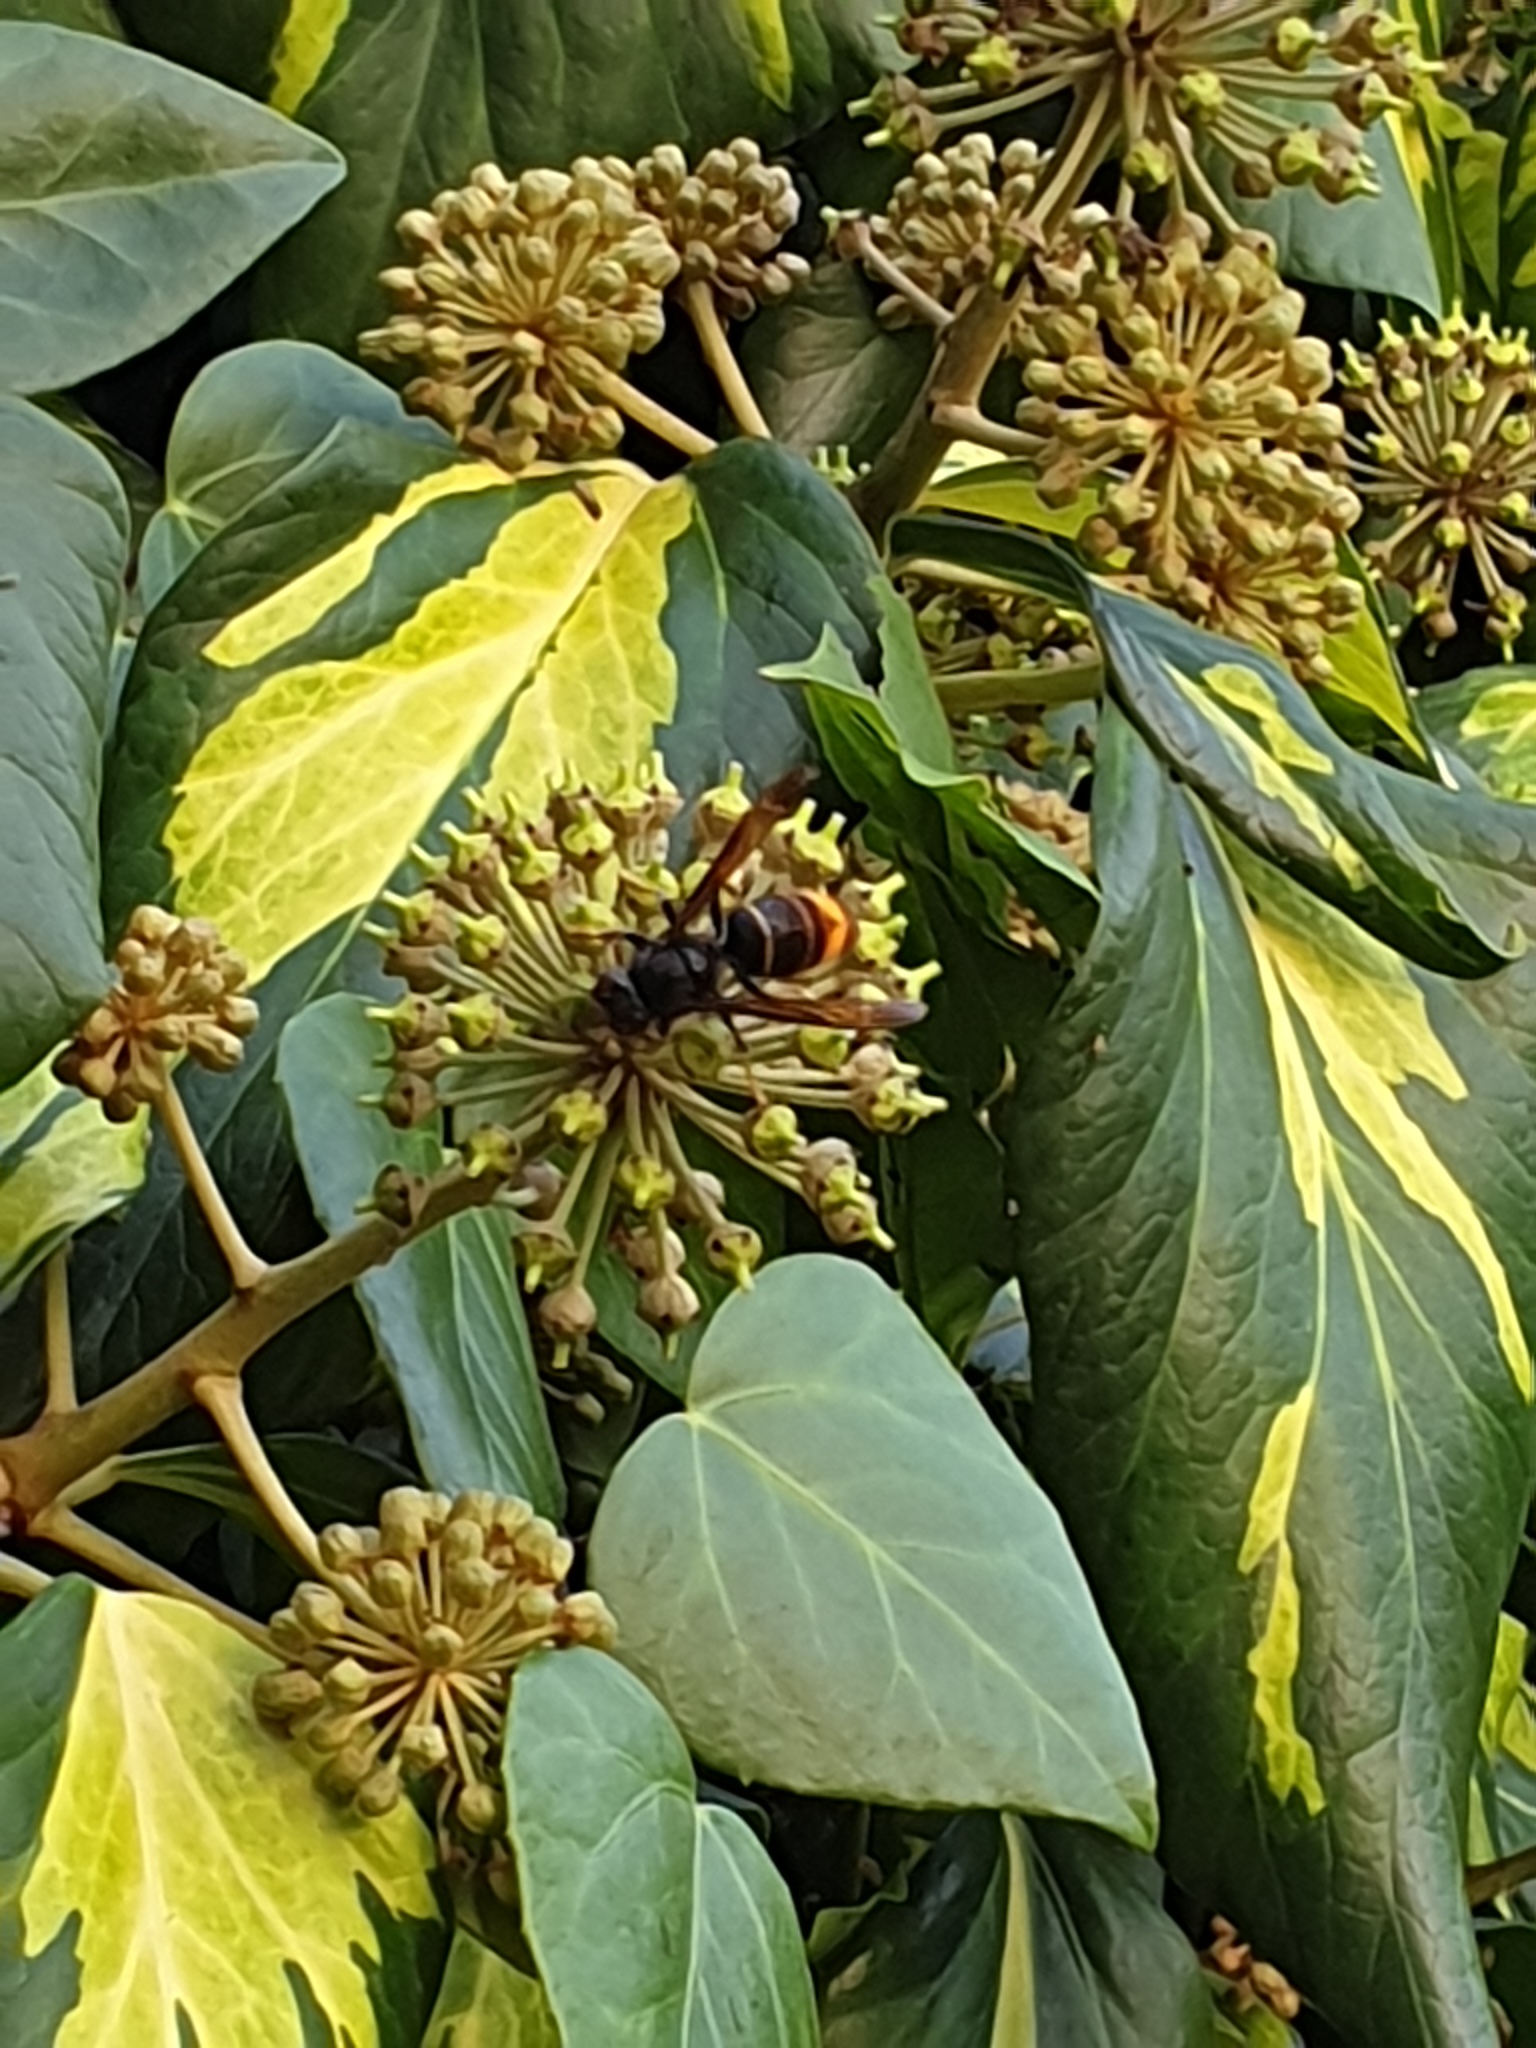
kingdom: Animalia
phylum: Arthropoda
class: Insecta
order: Hymenoptera
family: Vespidae
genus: Vespa
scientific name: Vespa velutina
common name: Asian hornet
